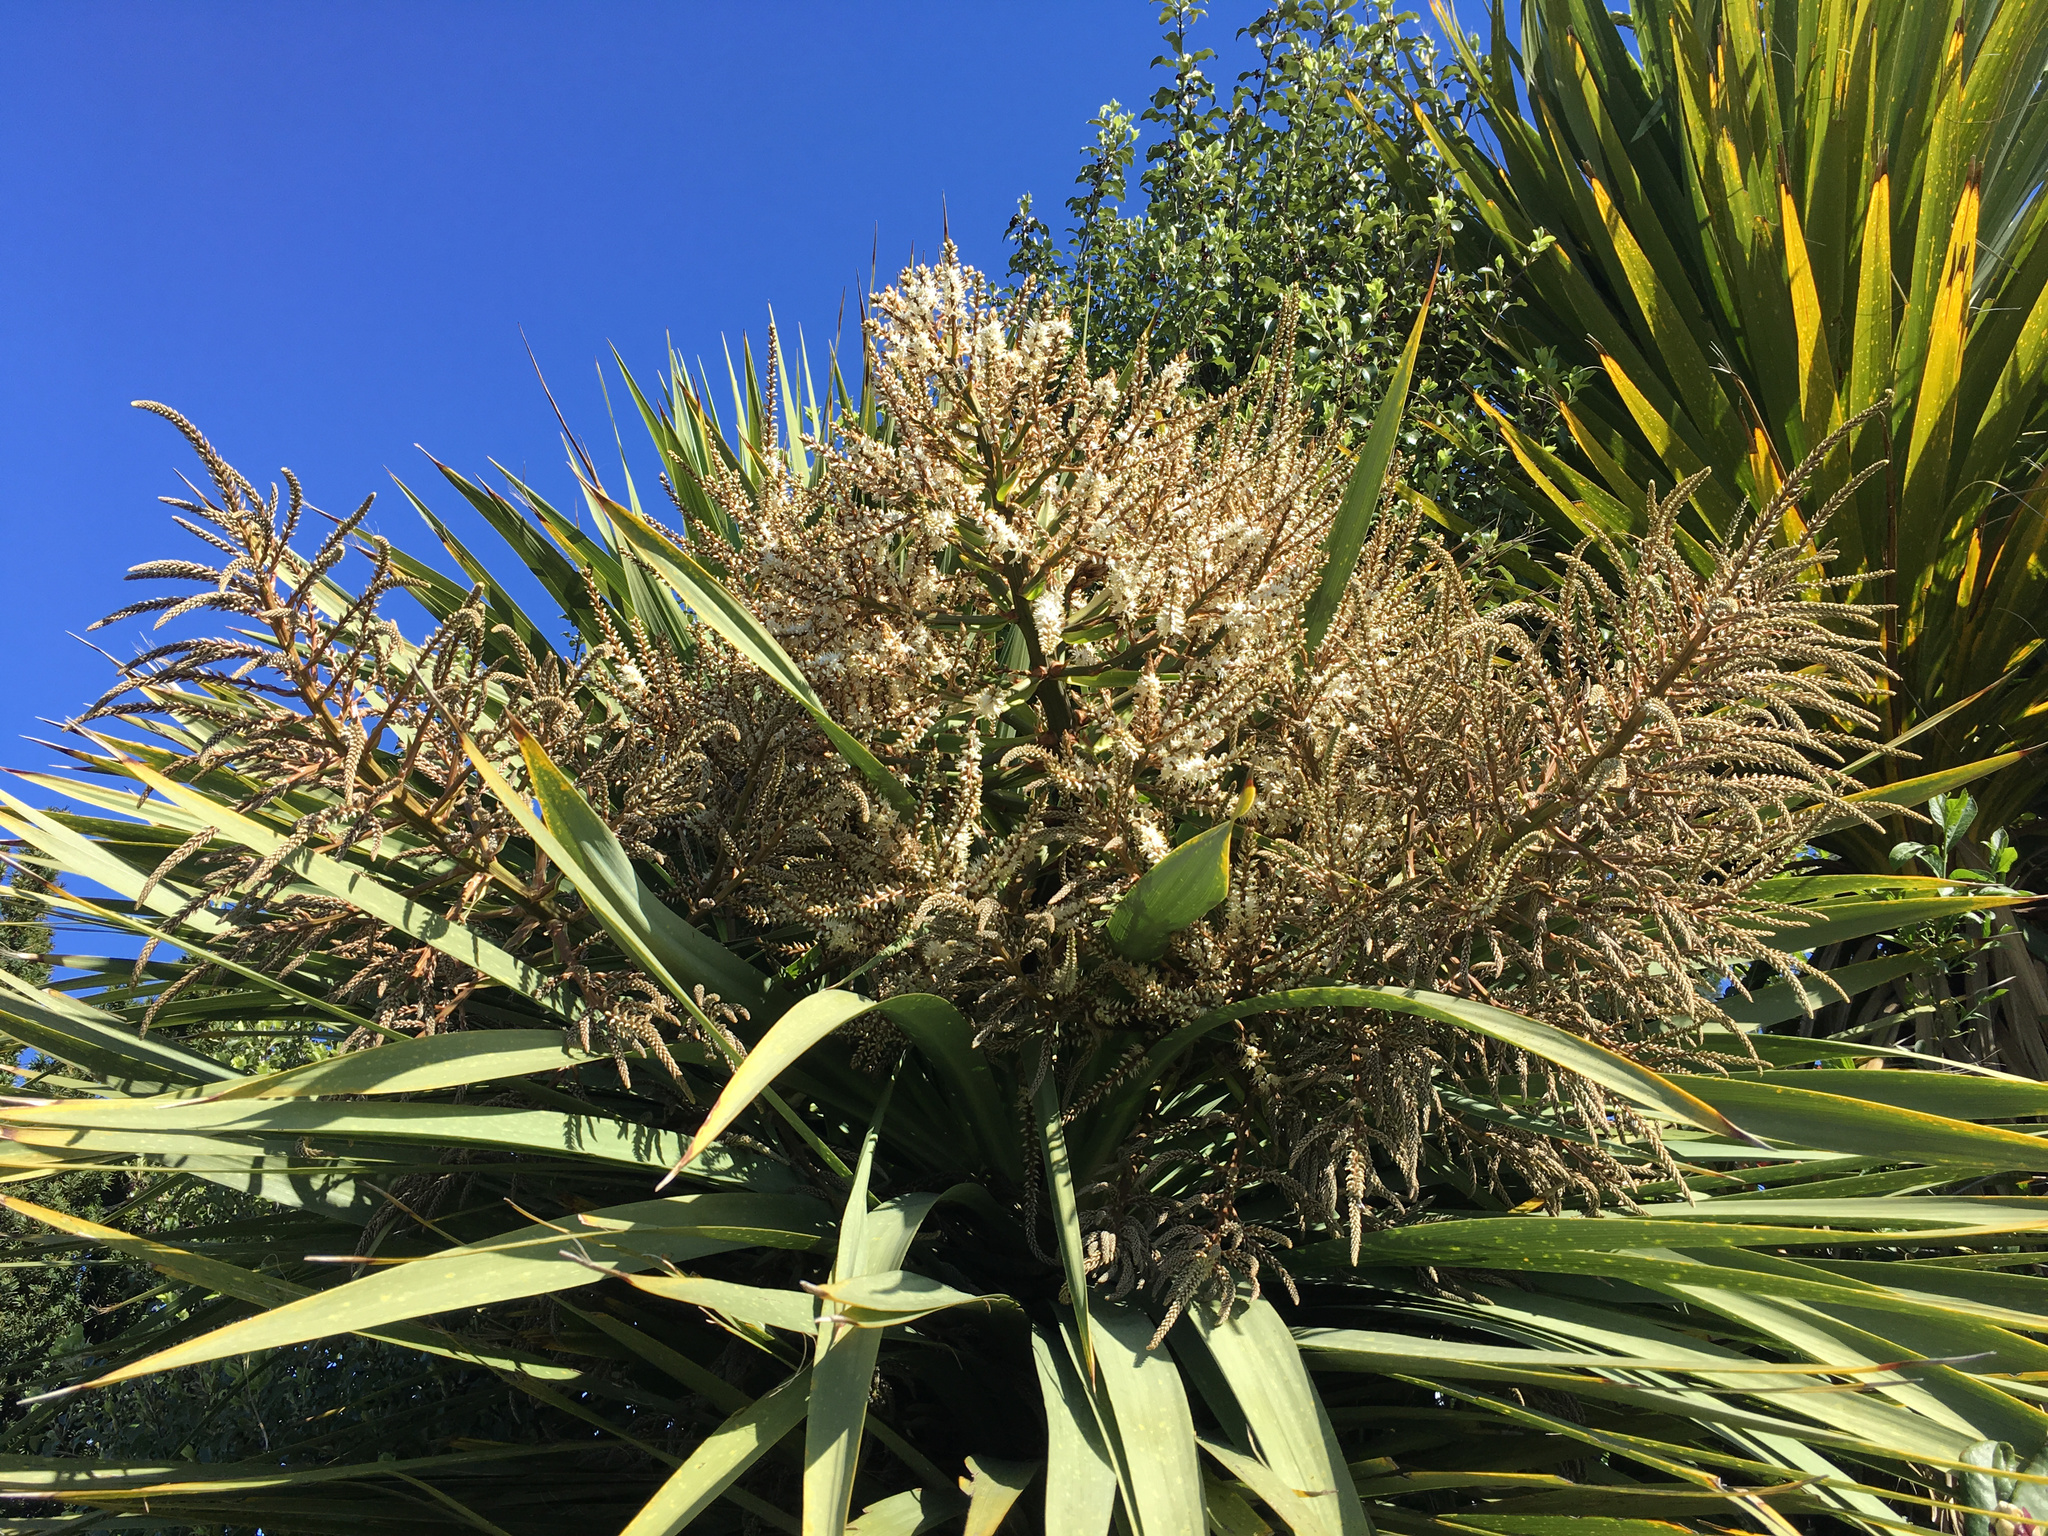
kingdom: Plantae
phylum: Tracheophyta
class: Liliopsida
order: Asparagales
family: Asparagaceae
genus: Cordyline
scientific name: Cordyline australis
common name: Cabbage-palm
